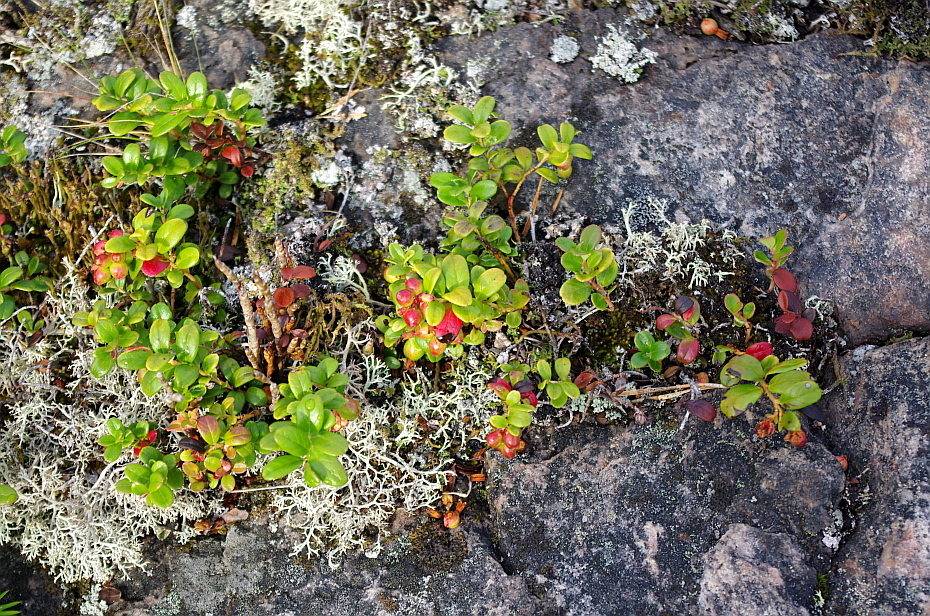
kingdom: Plantae
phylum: Tracheophyta
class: Magnoliopsida
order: Ericales
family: Ericaceae
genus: Vaccinium
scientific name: Vaccinium vitis-idaea
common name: Cowberry
